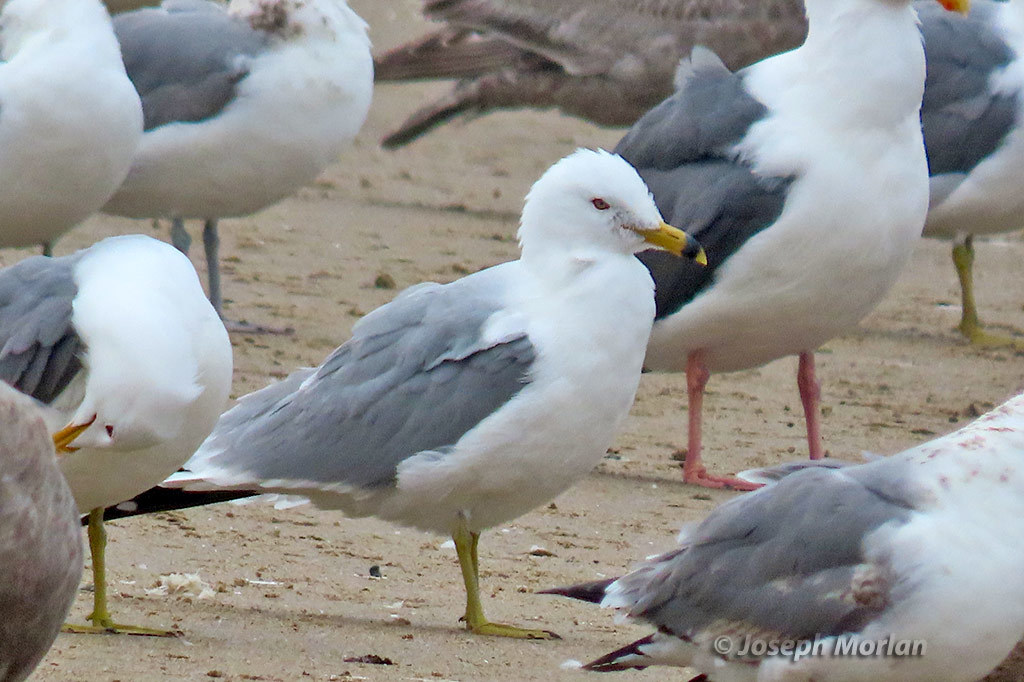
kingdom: Animalia
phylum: Chordata
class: Aves
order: Charadriiformes
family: Laridae
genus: Larus
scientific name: Larus delawarensis
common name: Ring-billed gull
